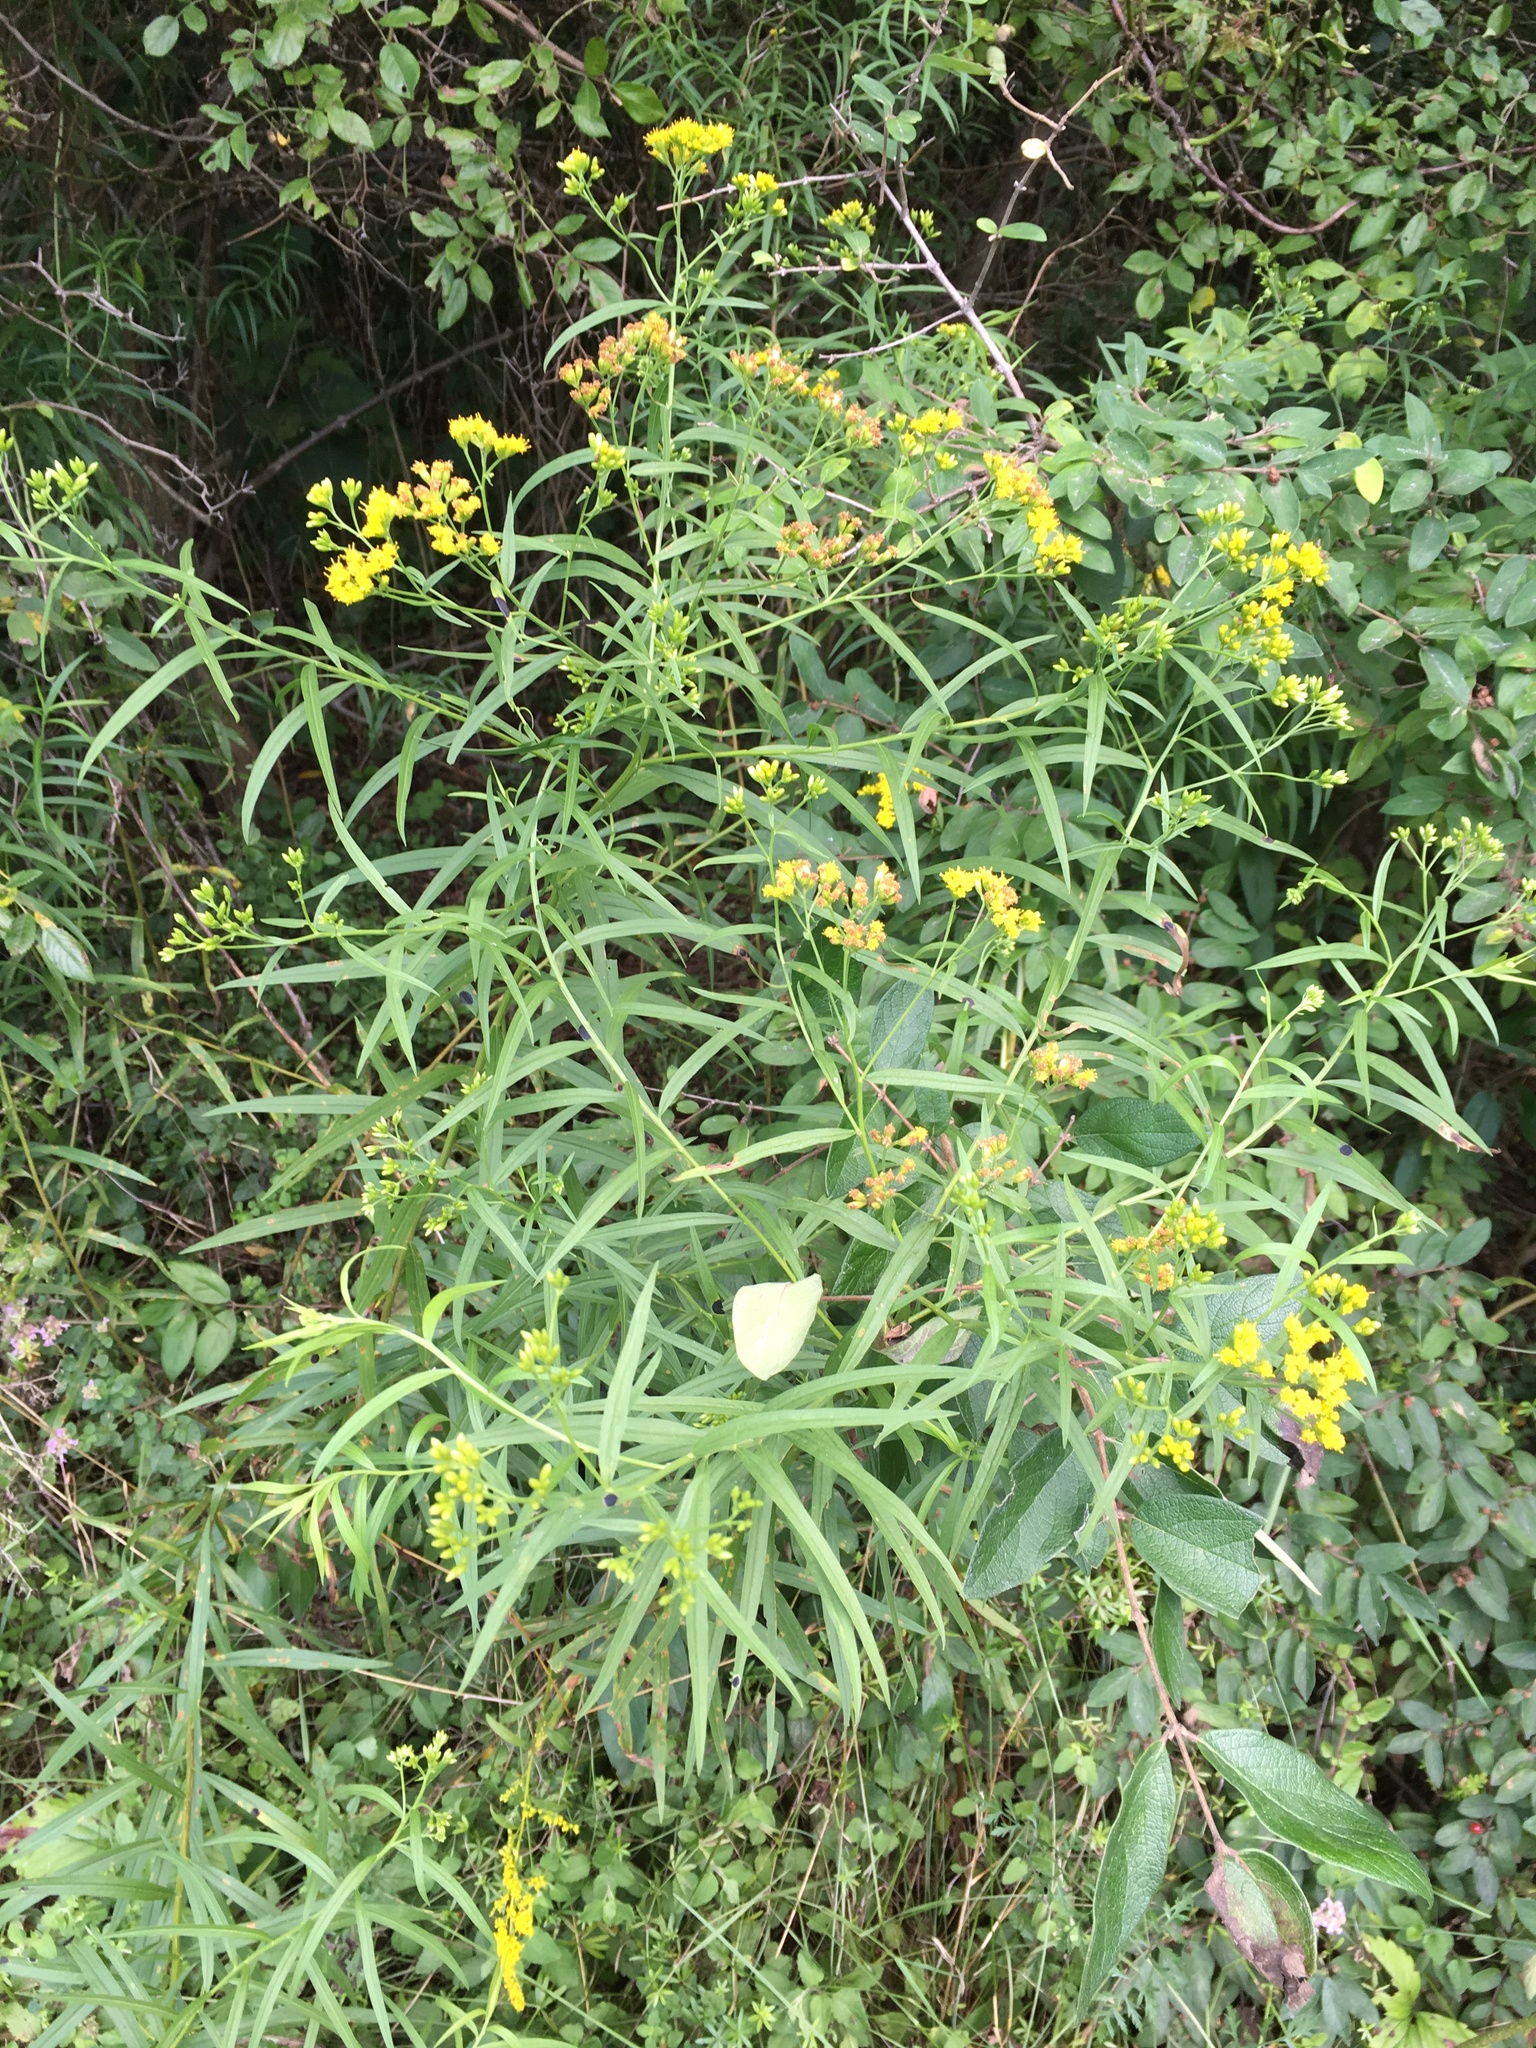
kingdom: Plantae
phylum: Tracheophyta
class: Magnoliopsida
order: Asterales
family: Asteraceae
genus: Euthamia
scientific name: Euthamia graminifolia
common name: Common goldentop
